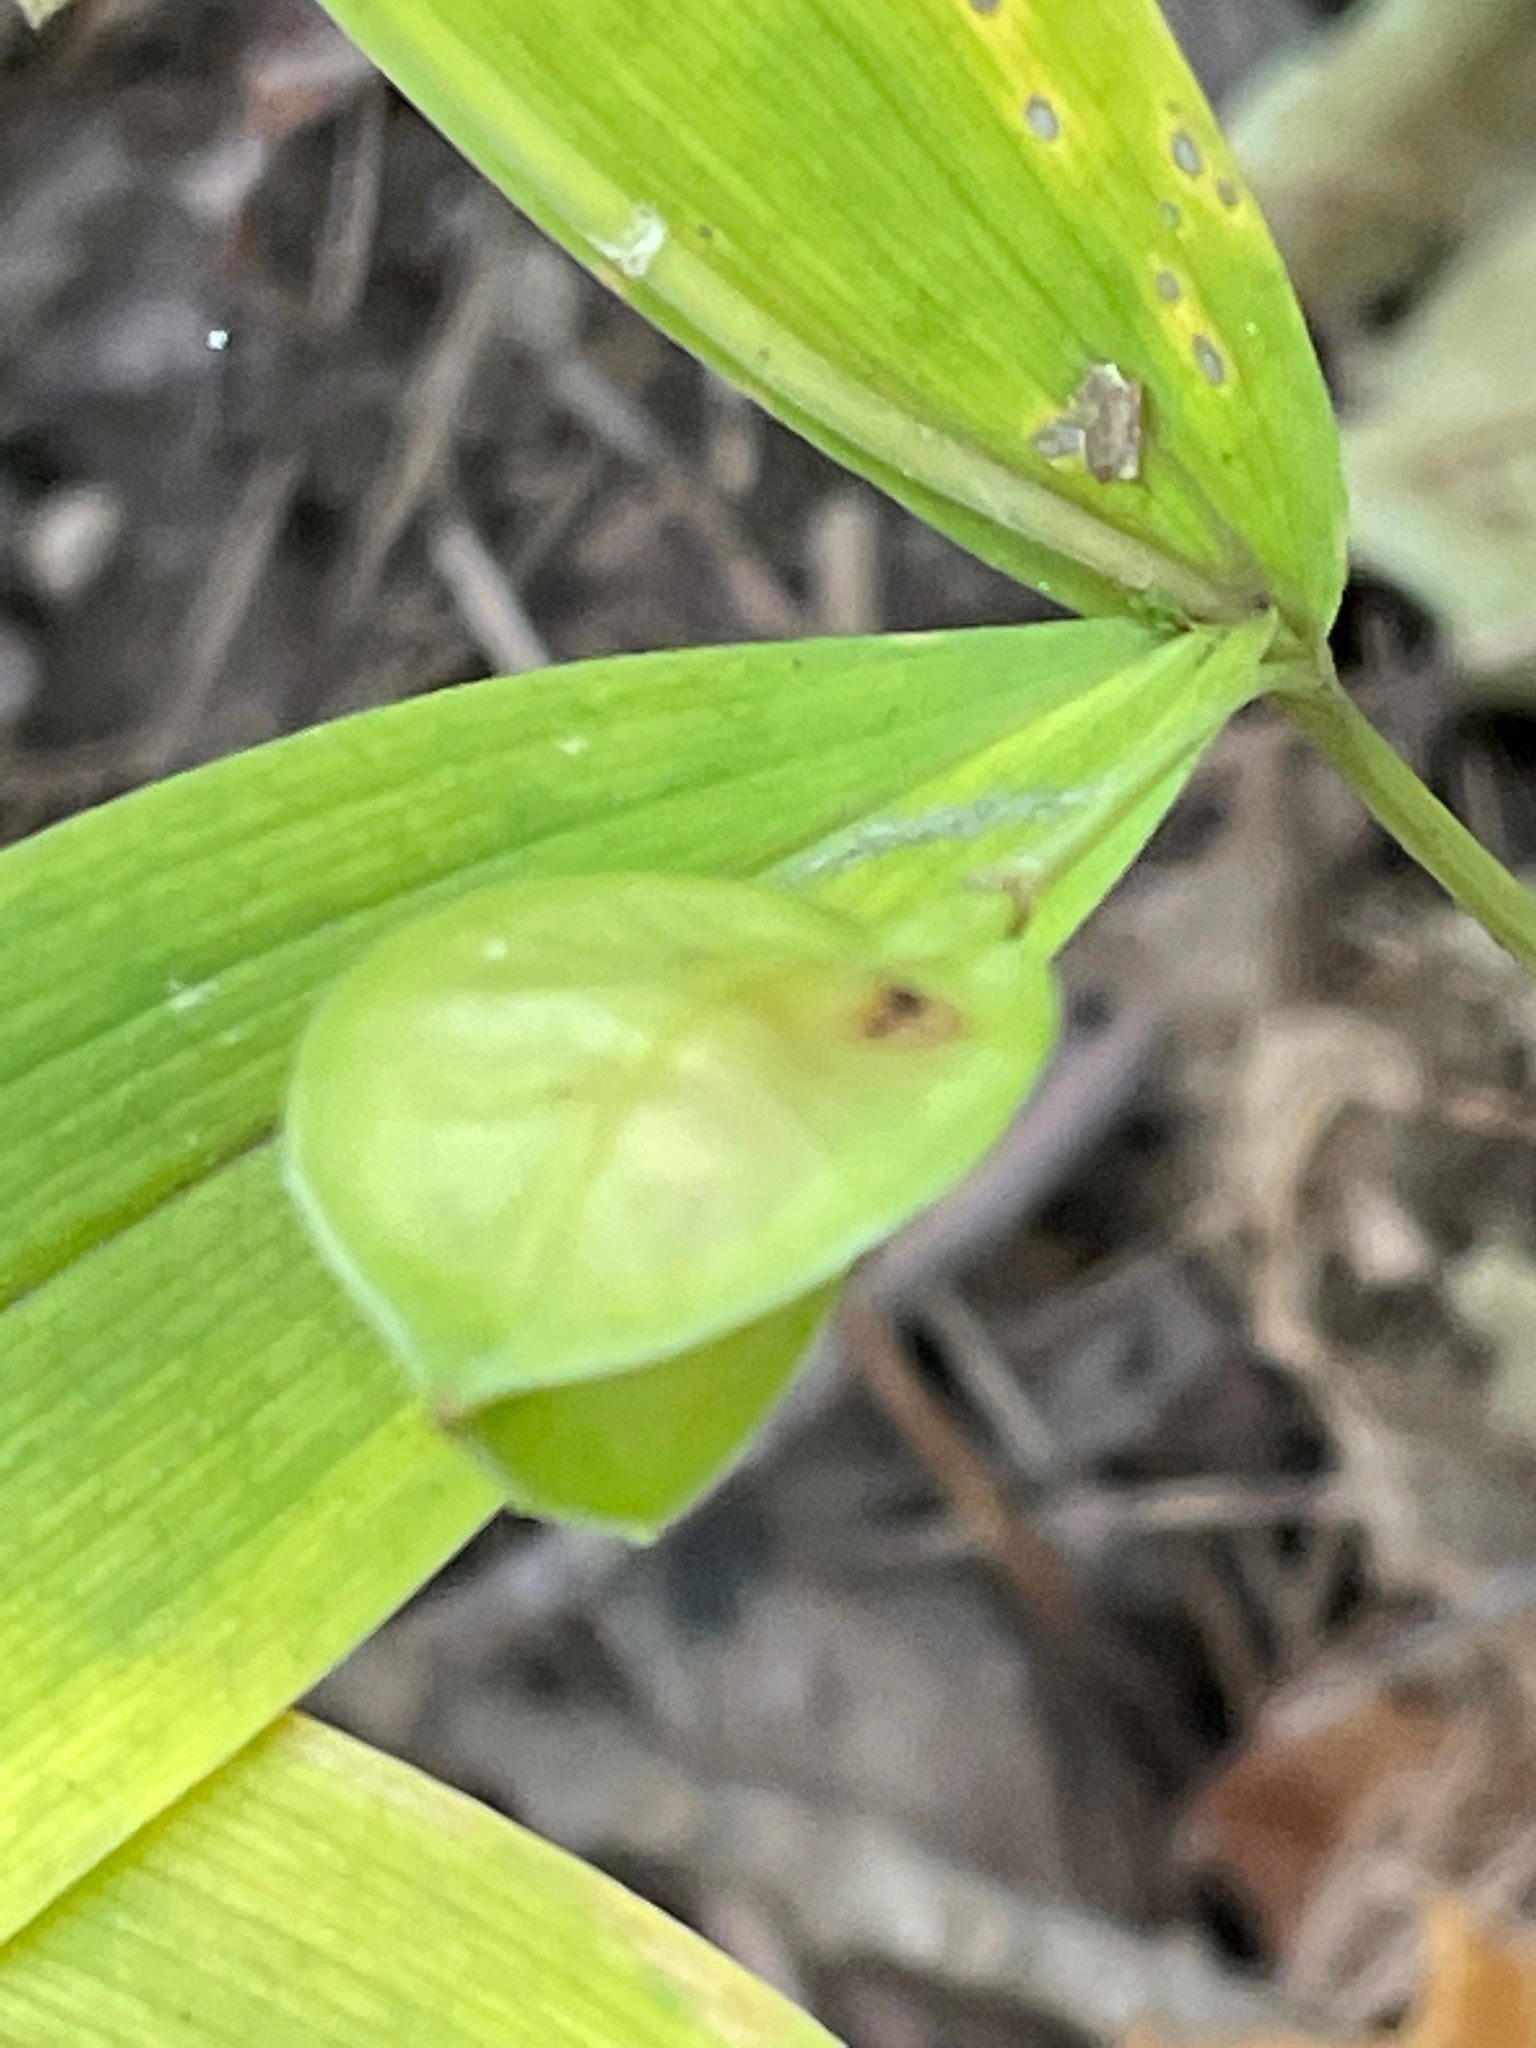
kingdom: Plantae
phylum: Tracheophyta
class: Liliopsida
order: Liliales
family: Colchicaceae
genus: Uvularia
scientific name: Uvularia sessilifolia
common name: Straw-lily
